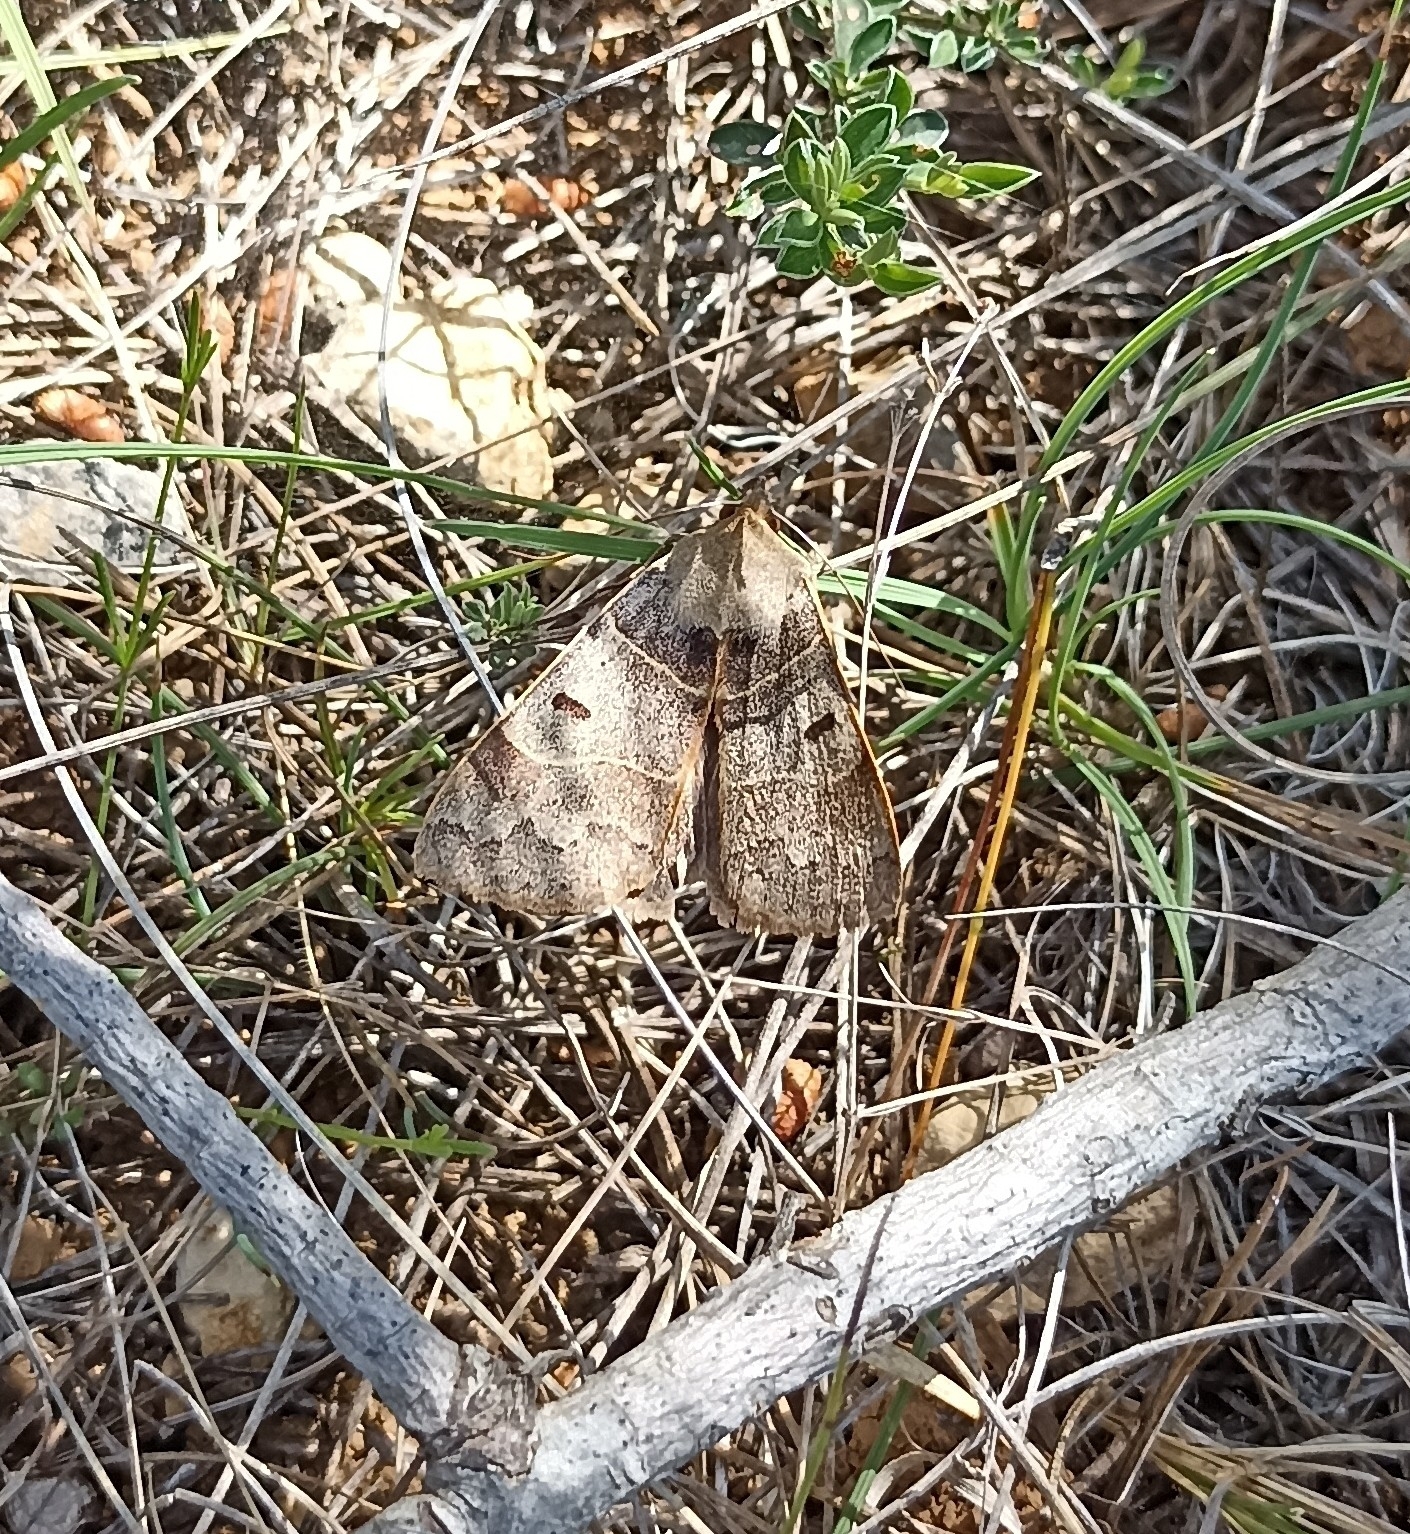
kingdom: Animalia
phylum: Arthropoda
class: Insecta
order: Lepidoptera
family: Erebidae
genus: Minucia
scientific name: Minucia lunaris
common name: Lunar double-stripe
